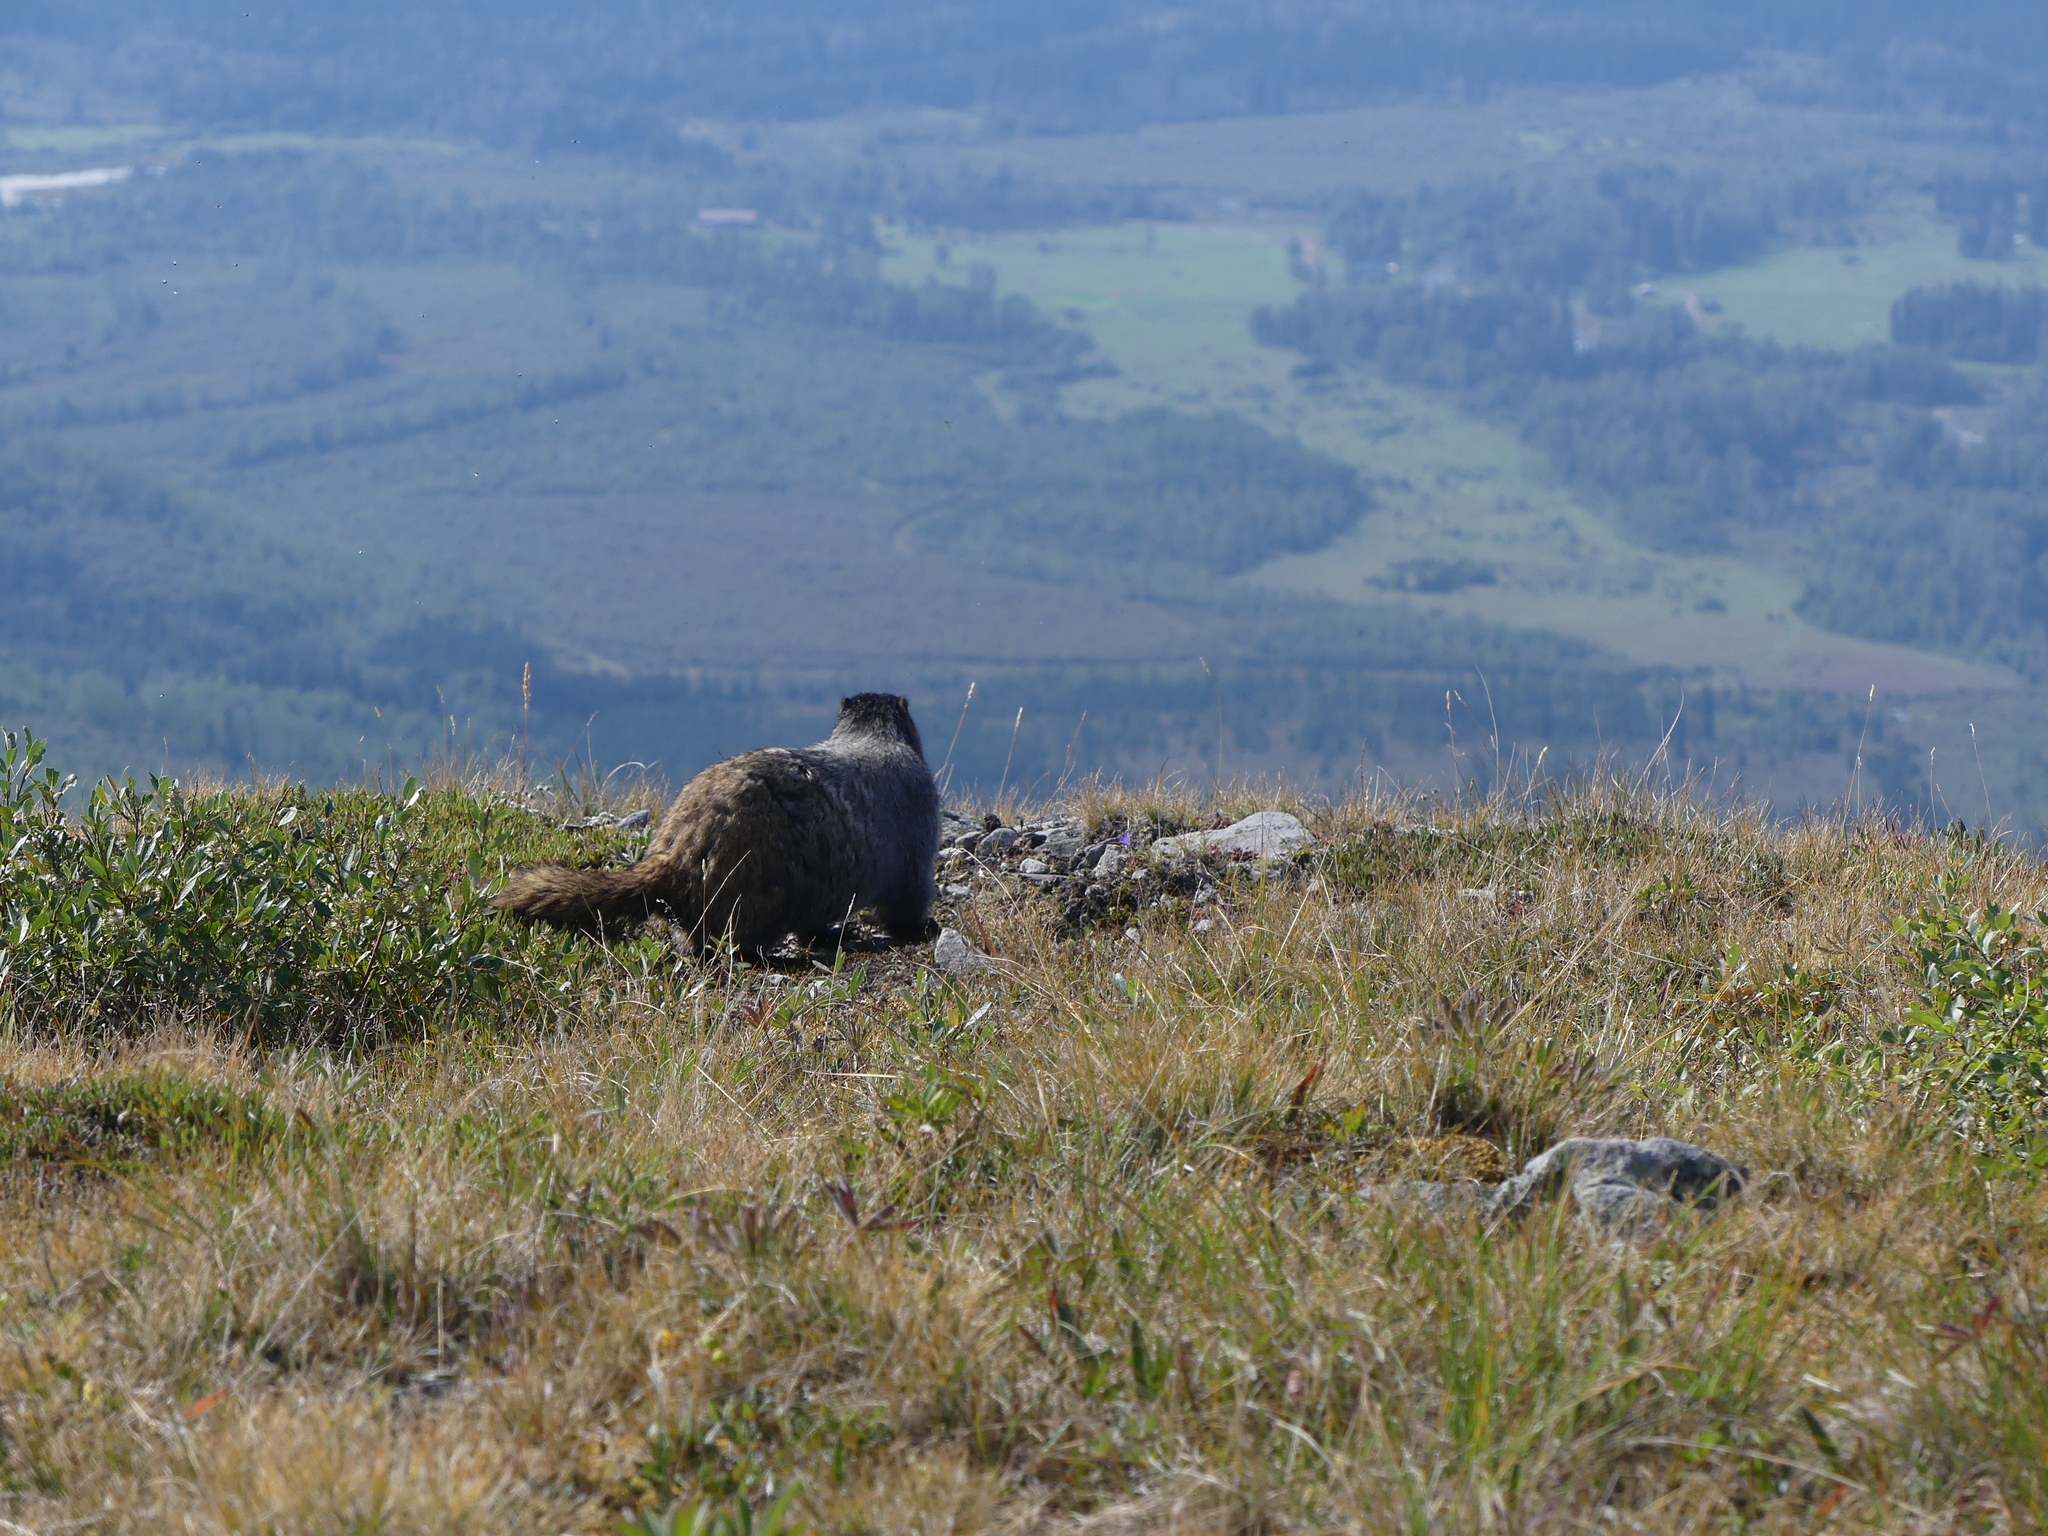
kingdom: Animalia
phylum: Chordata
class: Mammalia
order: Rodentia
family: Sciuridae
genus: Marmota
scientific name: Marmota caligata
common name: Hoary marmot
